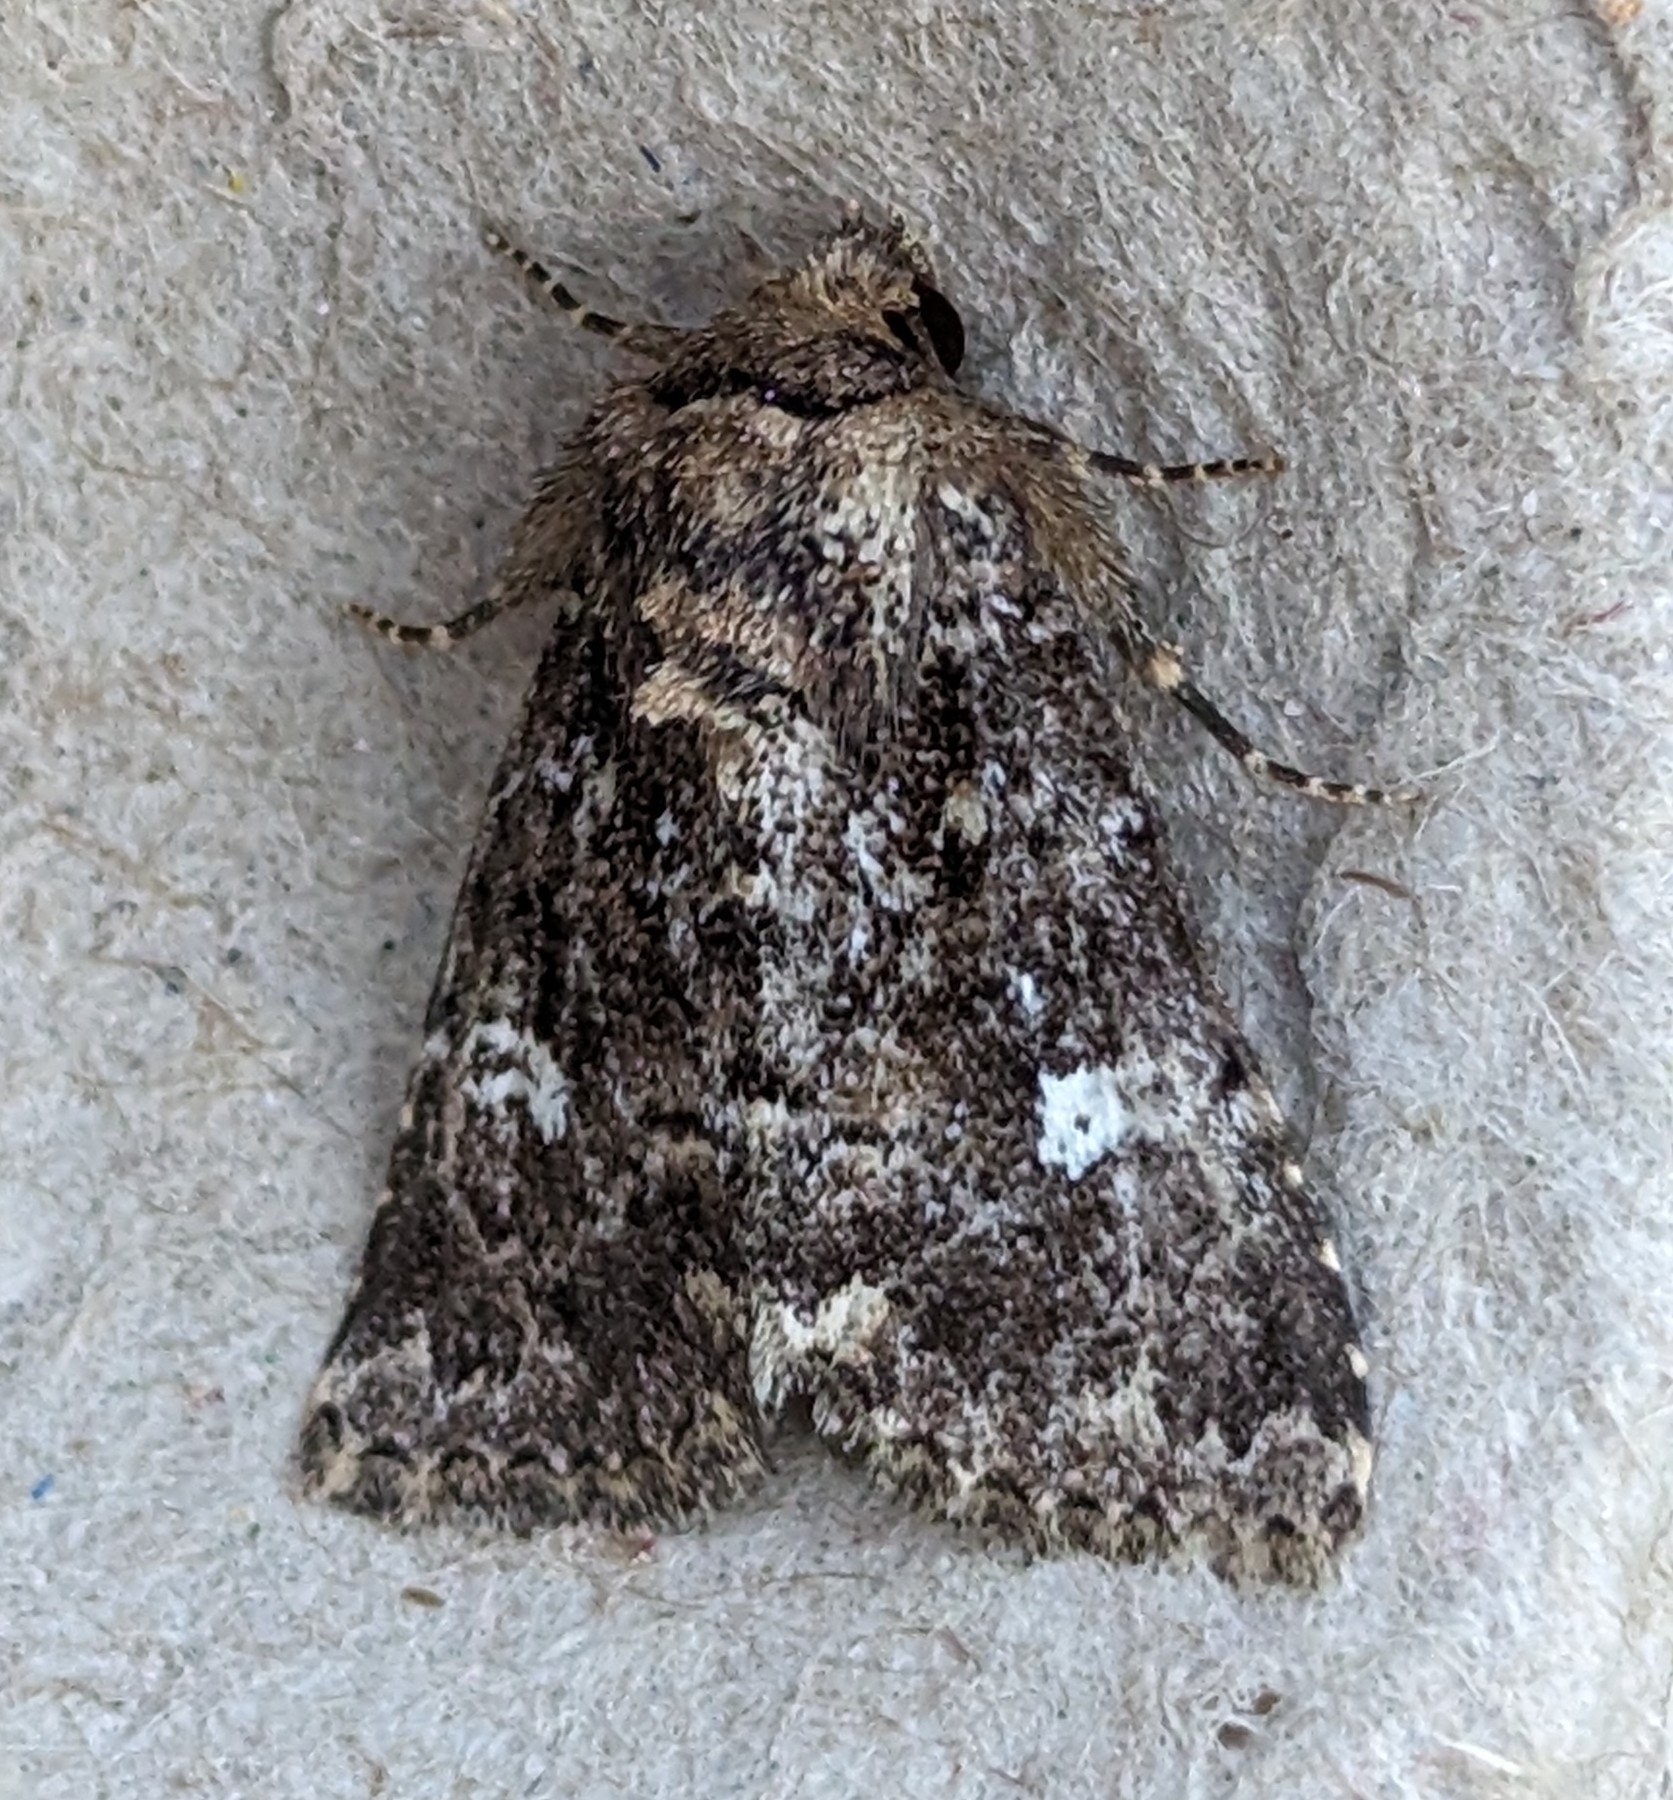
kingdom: Animalia
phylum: Arthropoda
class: Insecta
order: Lepidoptera
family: Noctuidae
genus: Properigea
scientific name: Properigea albimacula
